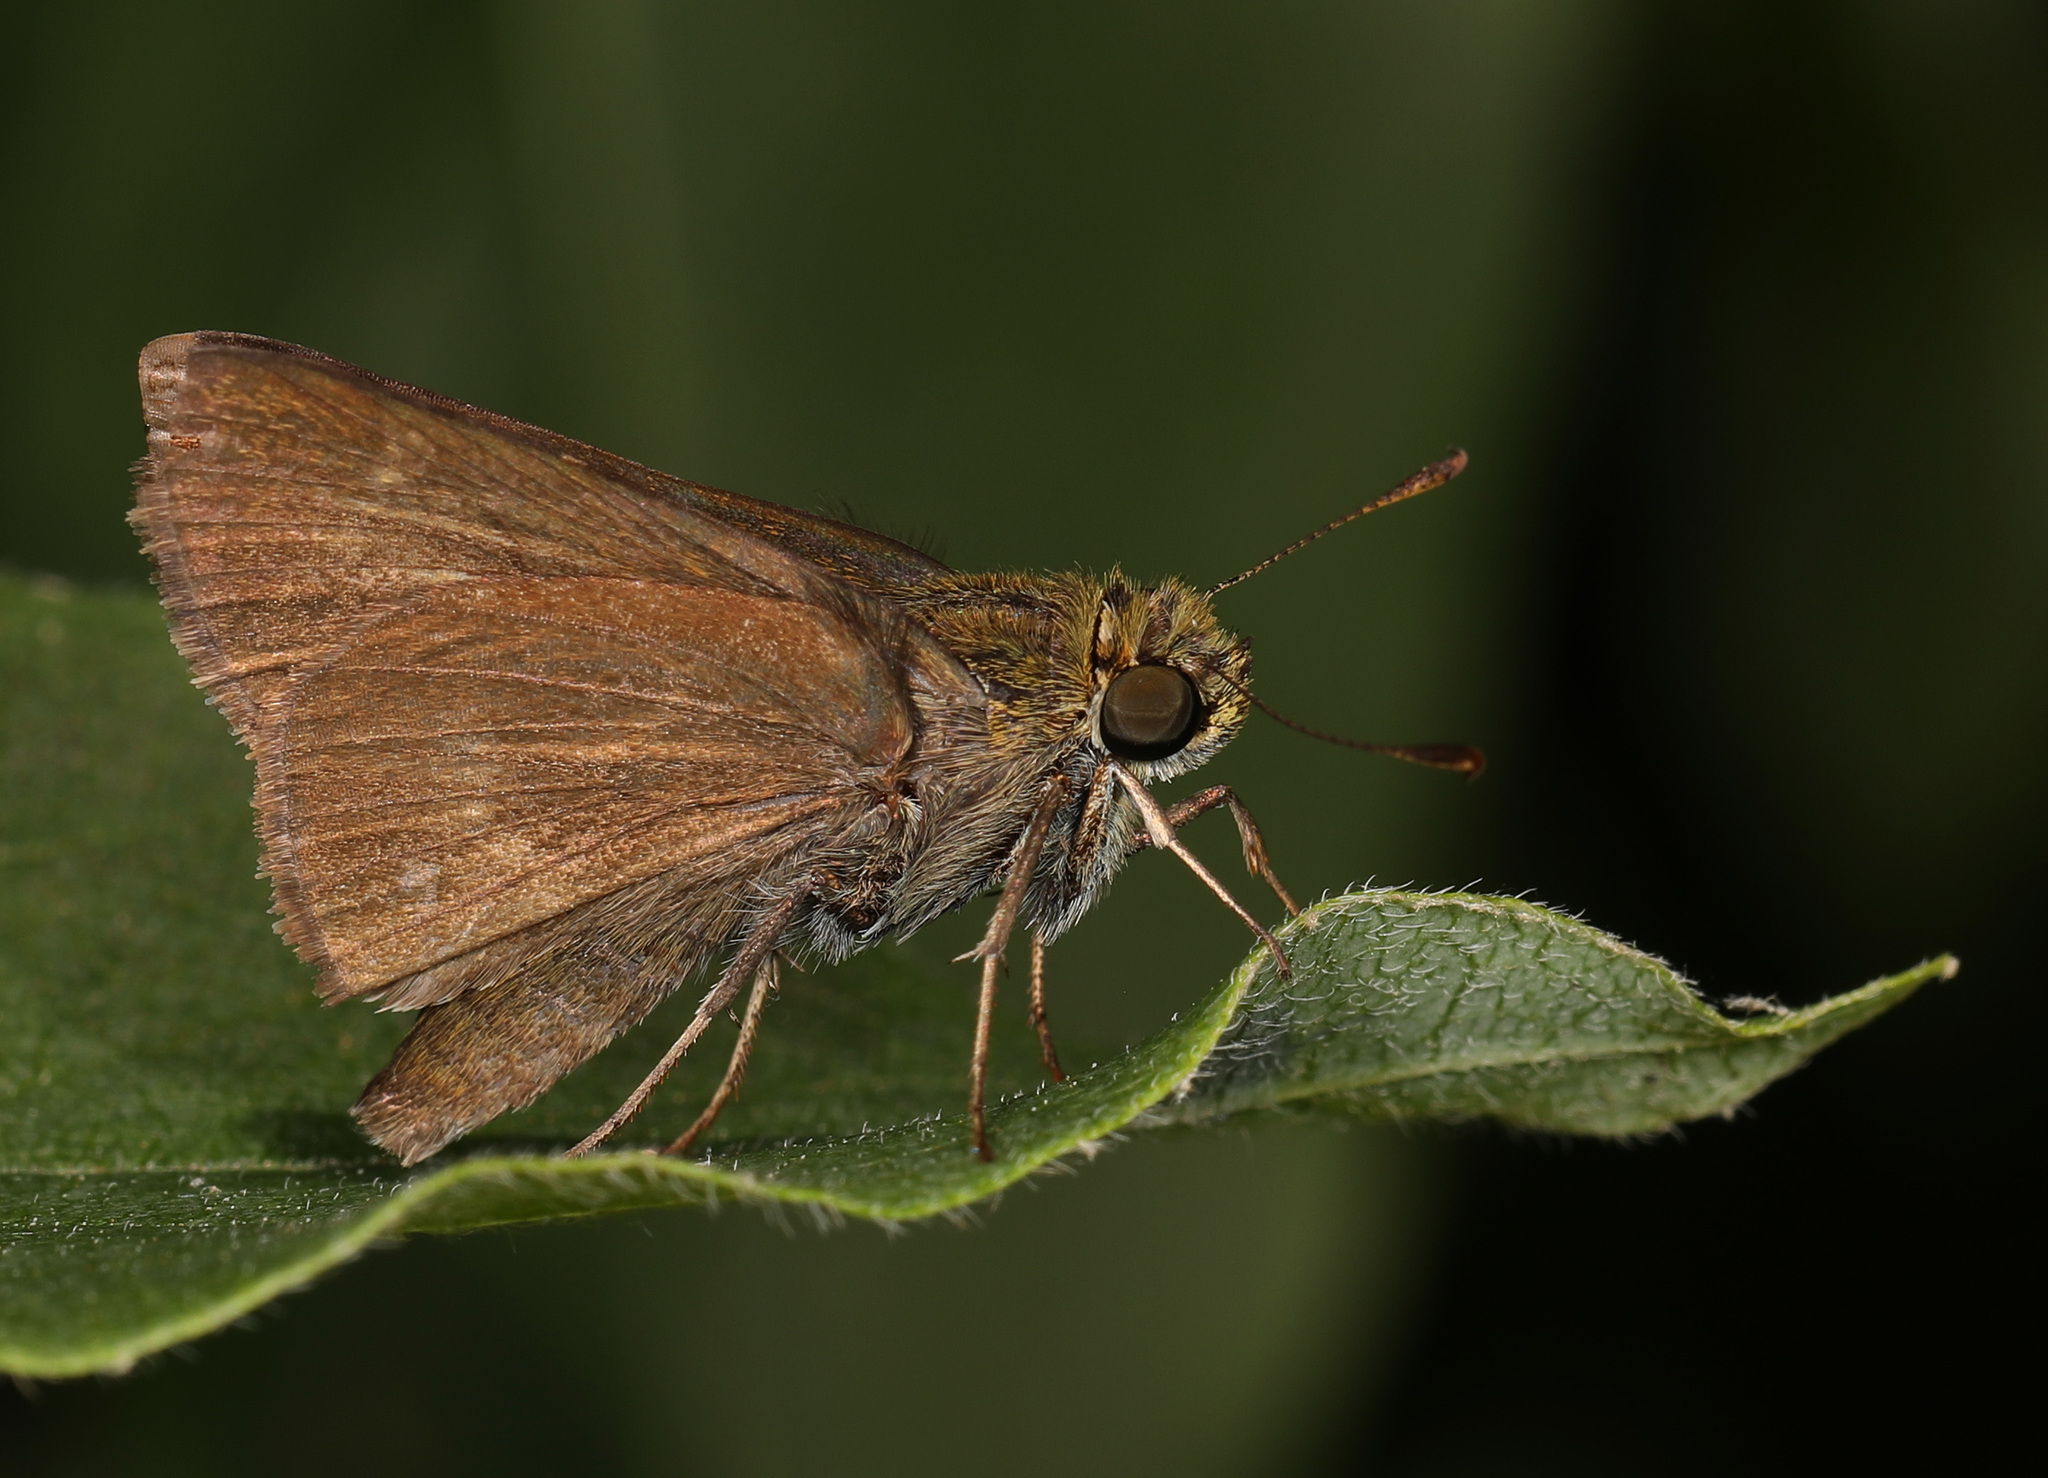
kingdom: Animalia
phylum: Arthropoda
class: Insecta
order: Lepidoptera
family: Hesperiidae
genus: Euphyes
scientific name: Euphyes vestris
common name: Dun skipper
